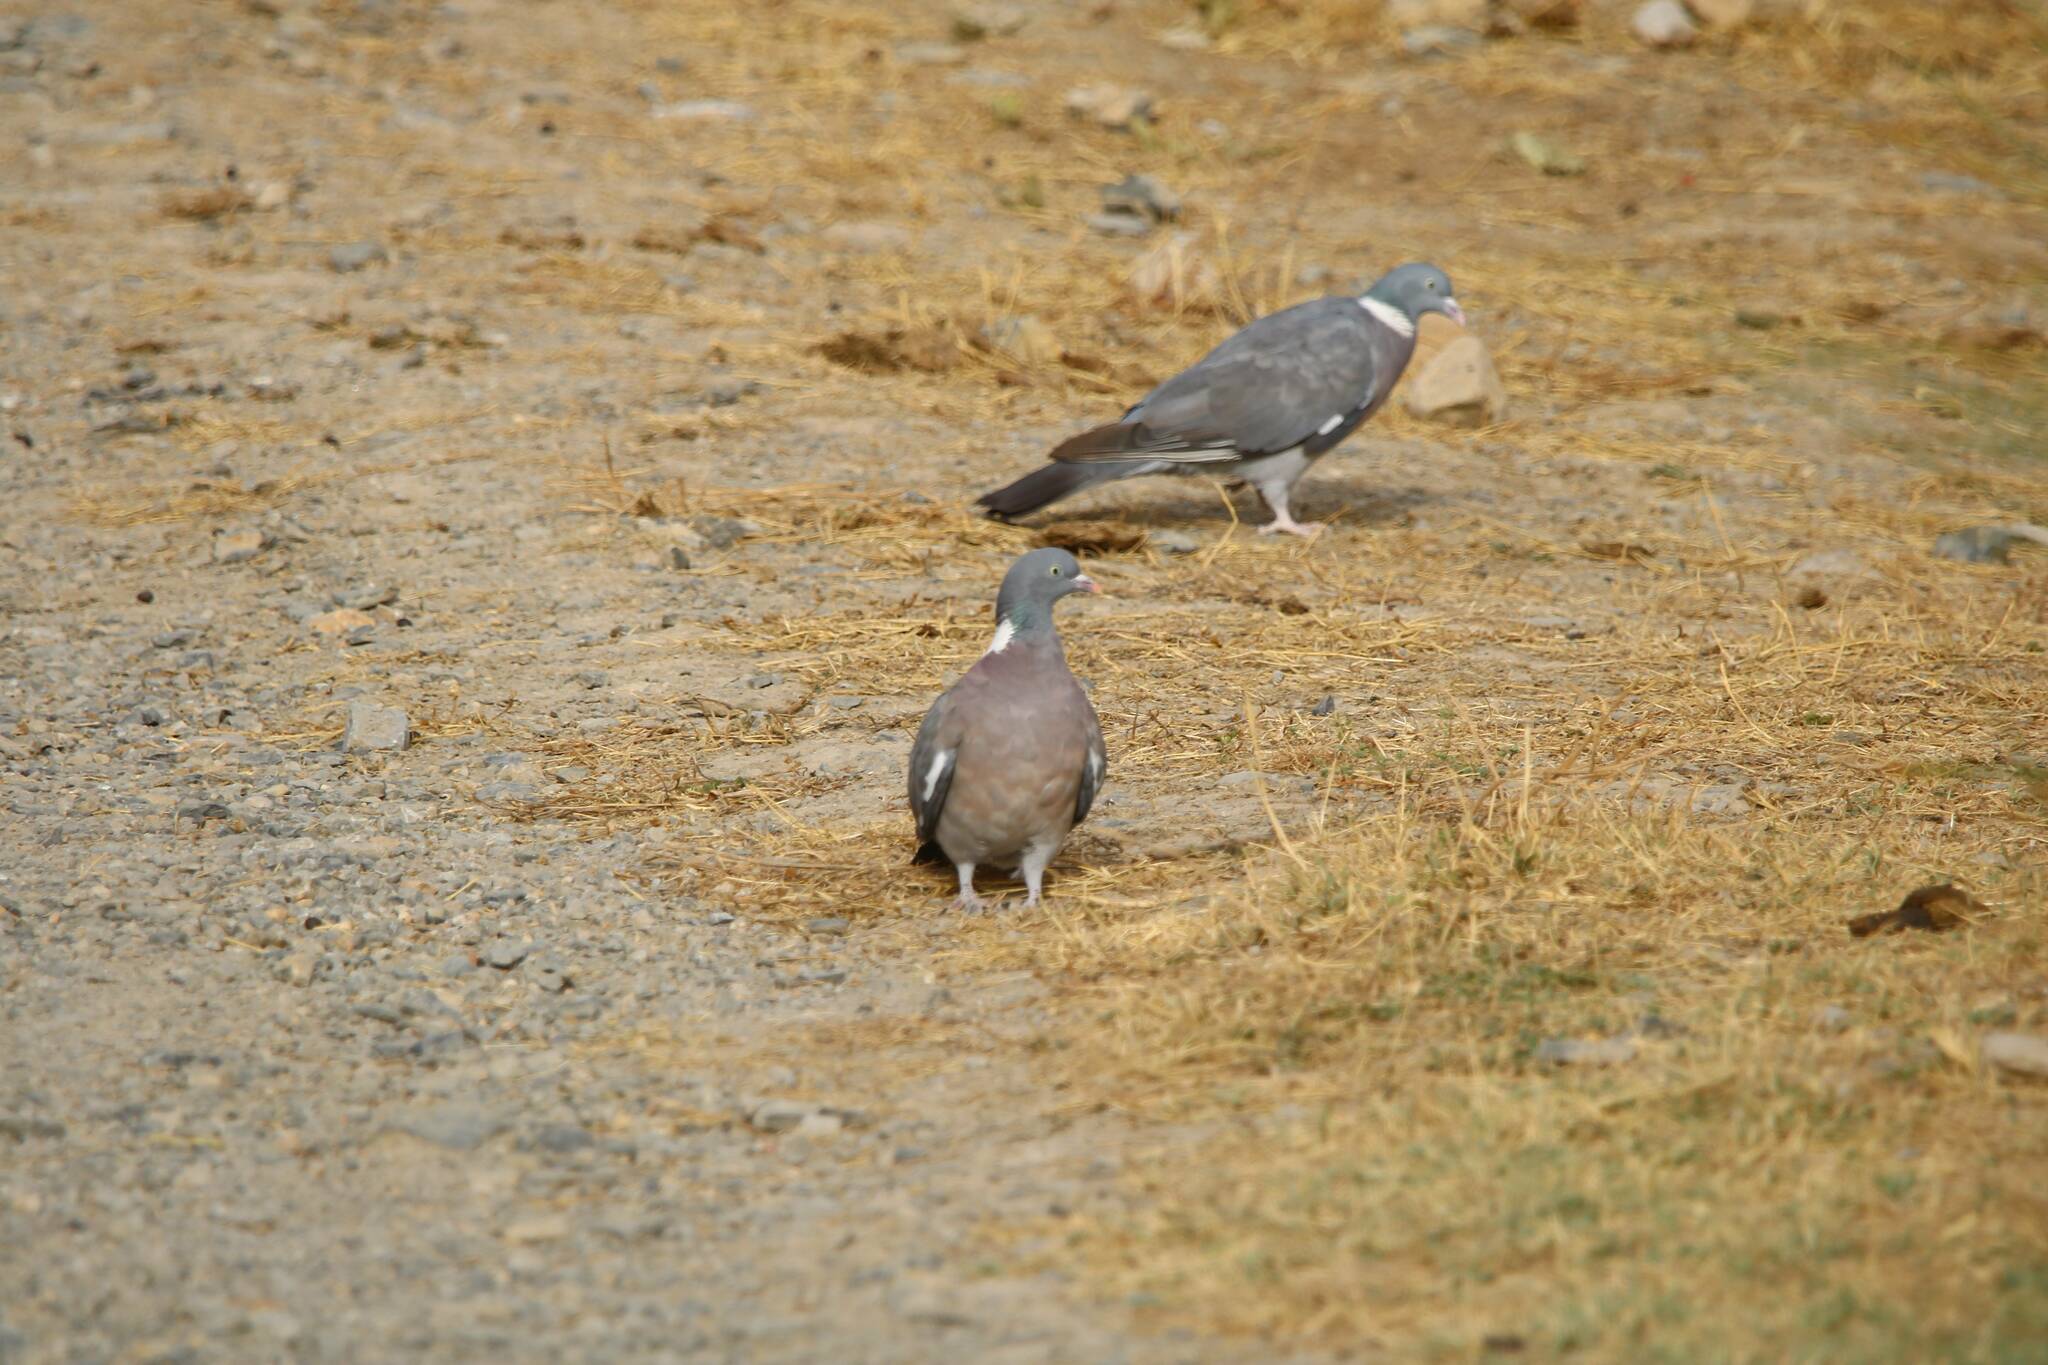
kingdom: Animalia
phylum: Chordata
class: Aves
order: Columbiformes
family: Columbidae
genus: Columba
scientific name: Columba palumbus
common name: Common wood pigeon
